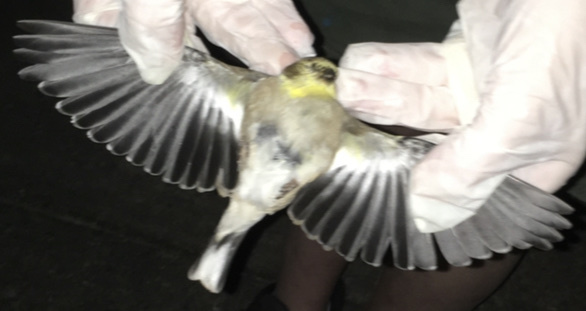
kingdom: Animalia
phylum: Chordata
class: Aves
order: Passeriformes
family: Fringillidae
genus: Spinus
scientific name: Spinus tristis
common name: American goldfinch
